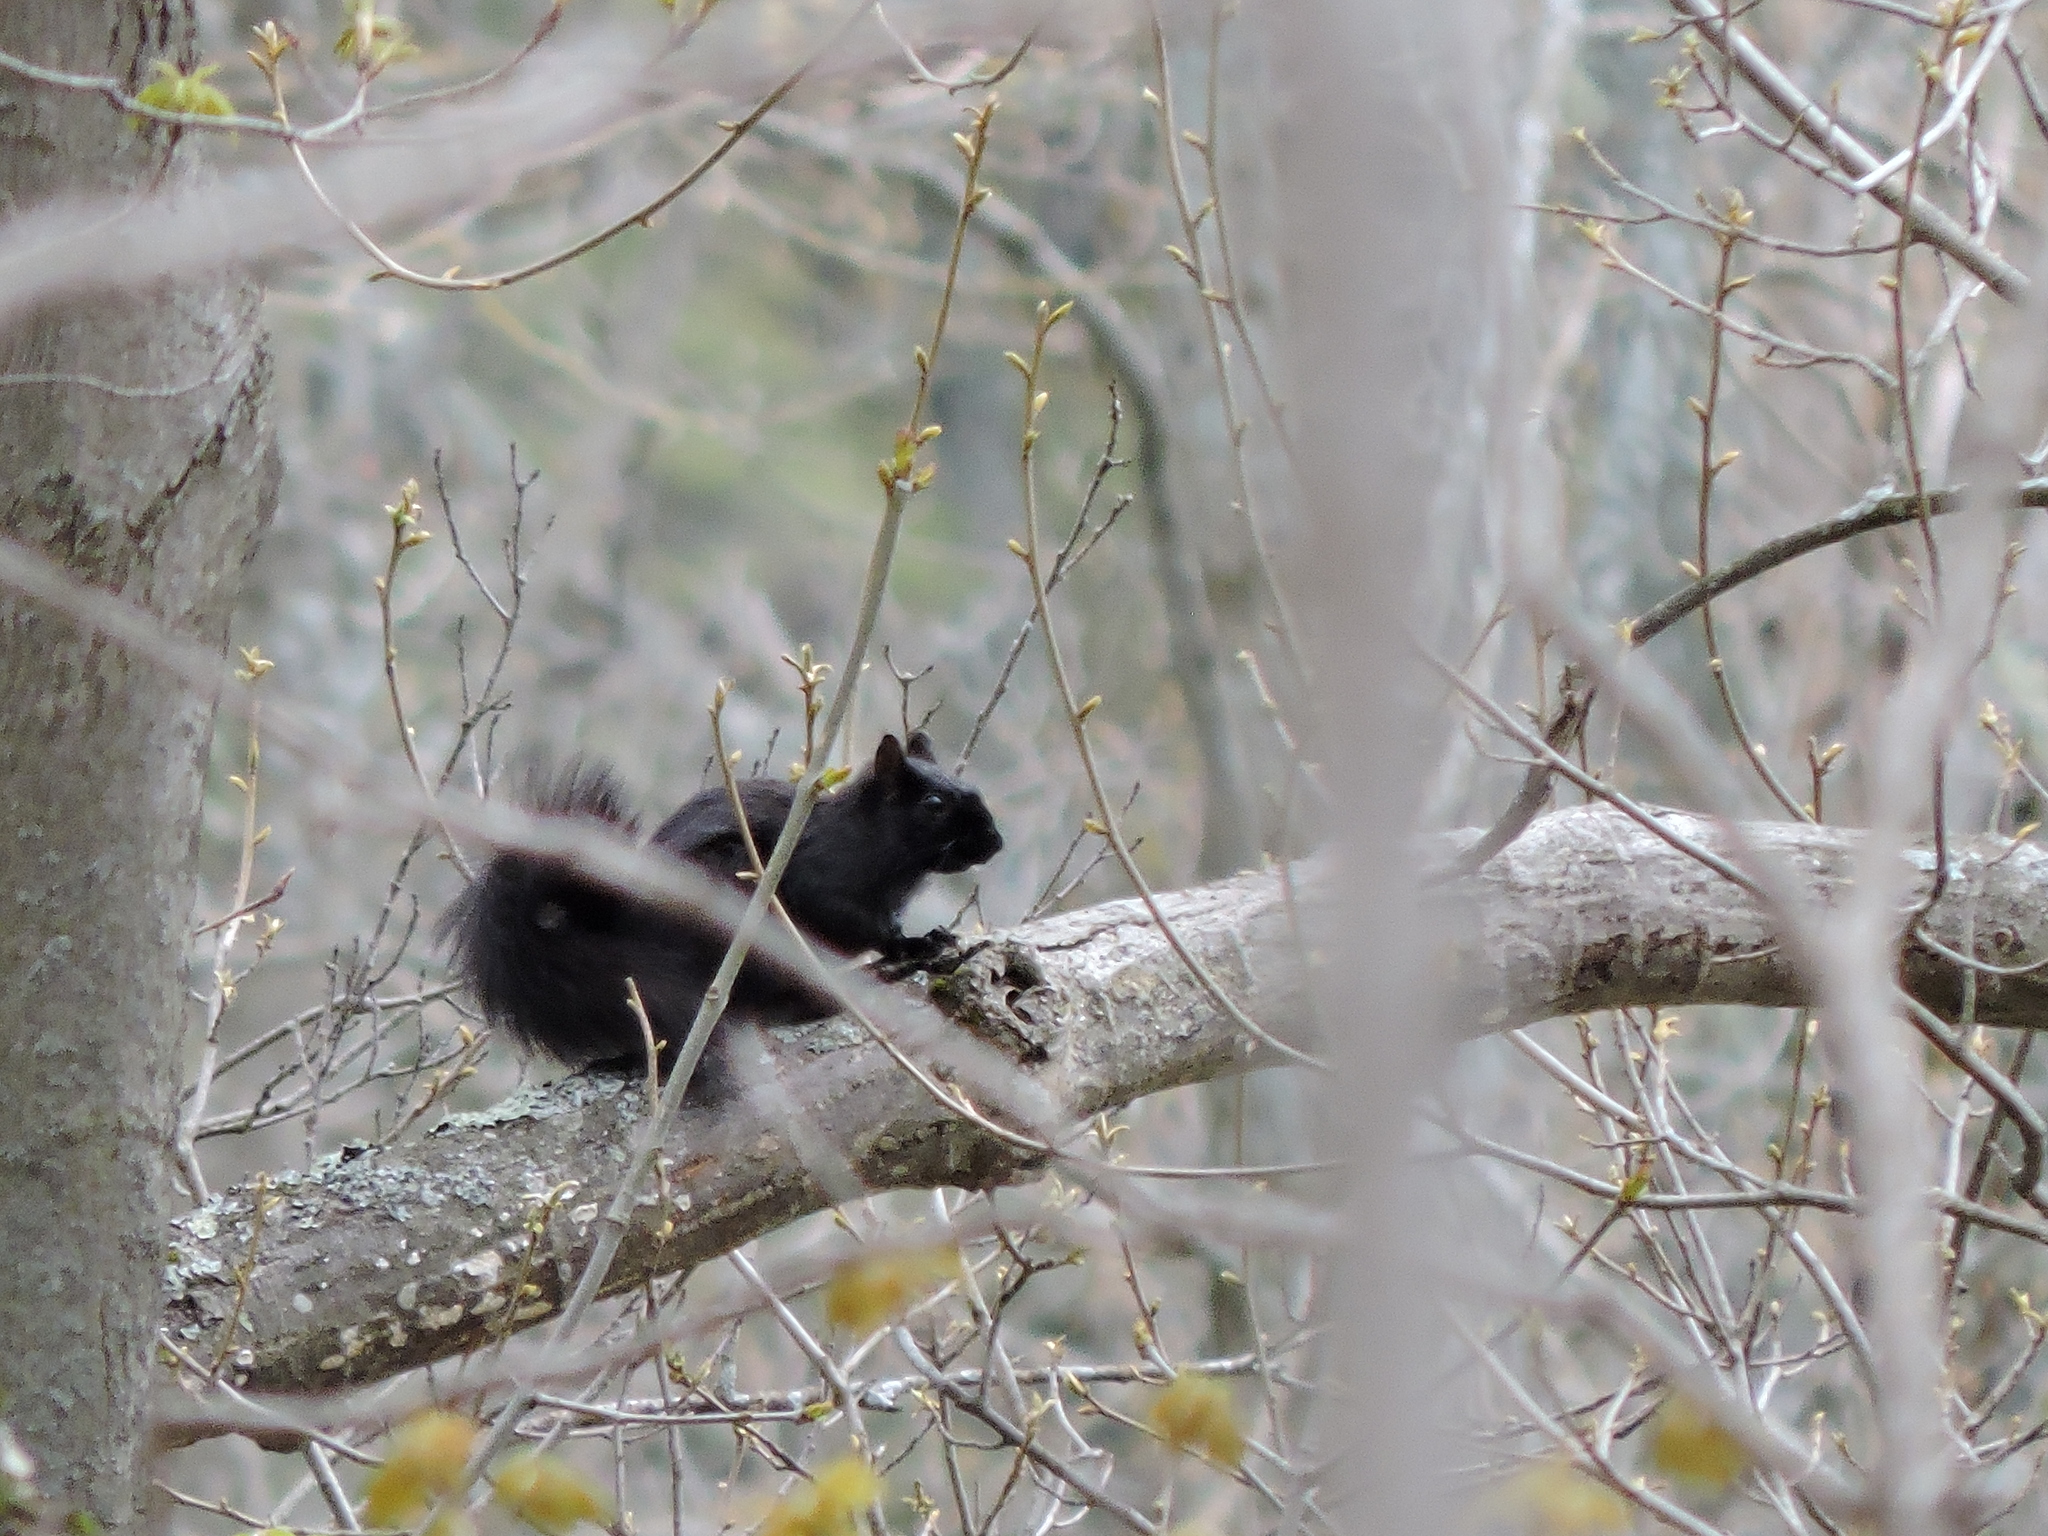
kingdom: Animalia
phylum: Chordata
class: Mammalia
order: Rodentia
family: Sciuridae
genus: Sciurus
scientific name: Sciurus carolinensis
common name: Eastern gray squirrel
